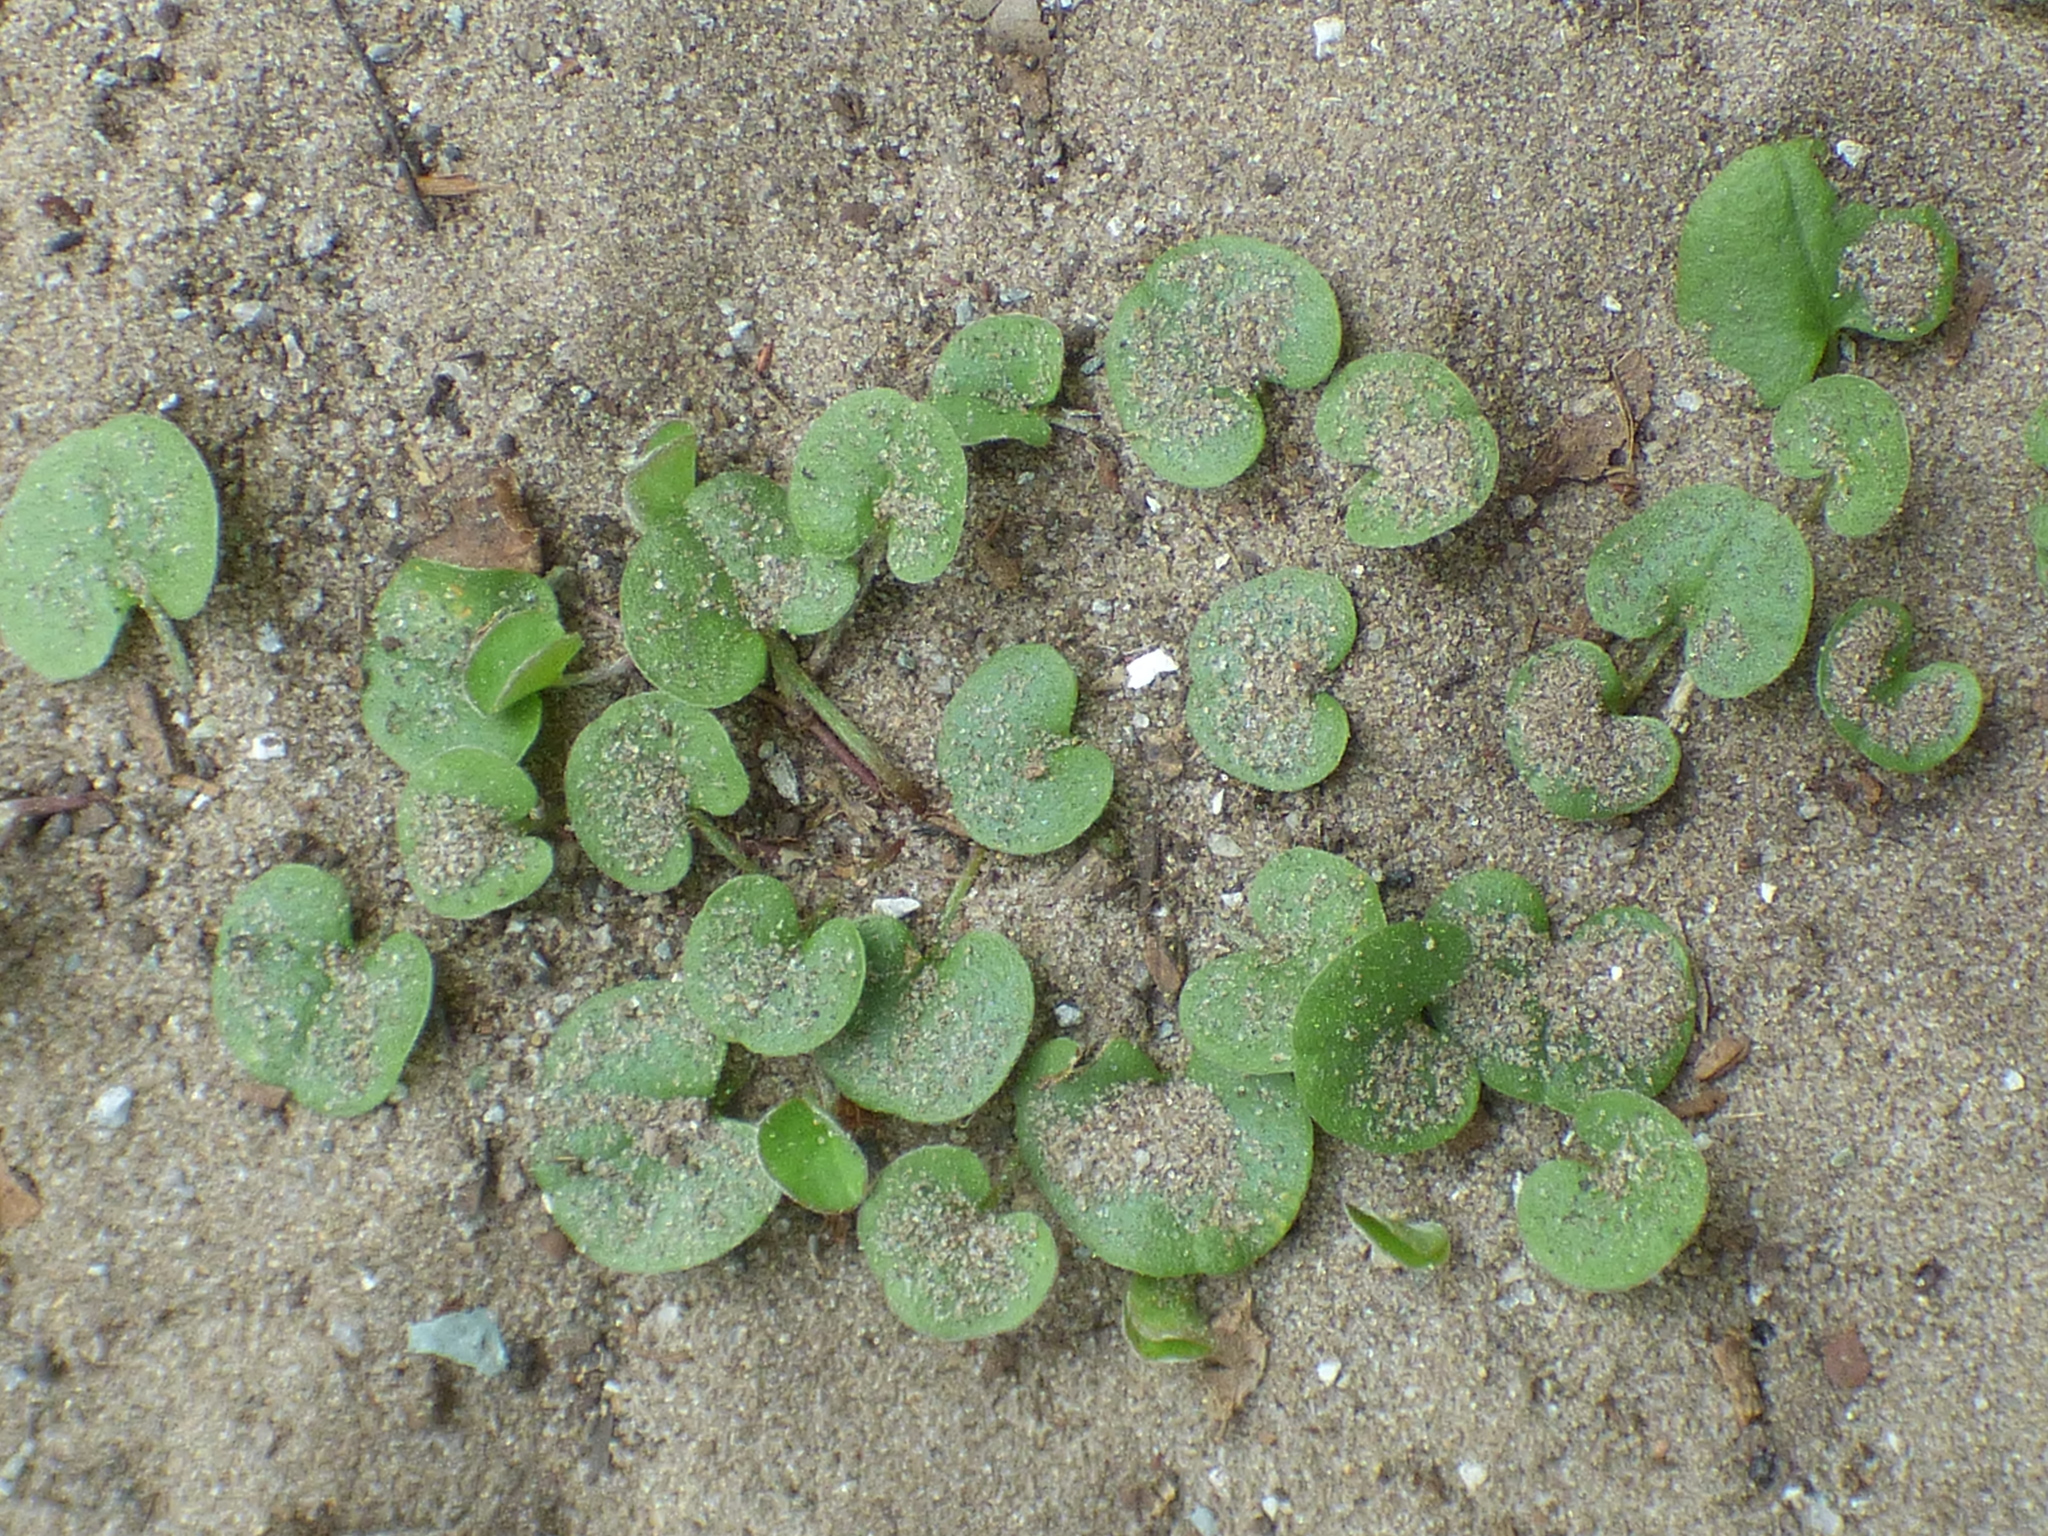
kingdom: Plantae
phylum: Tracheophyta
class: Magnoliopsida
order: Solanales
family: Convolvulaceae
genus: Dichondra
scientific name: Dichondra carolinensis
